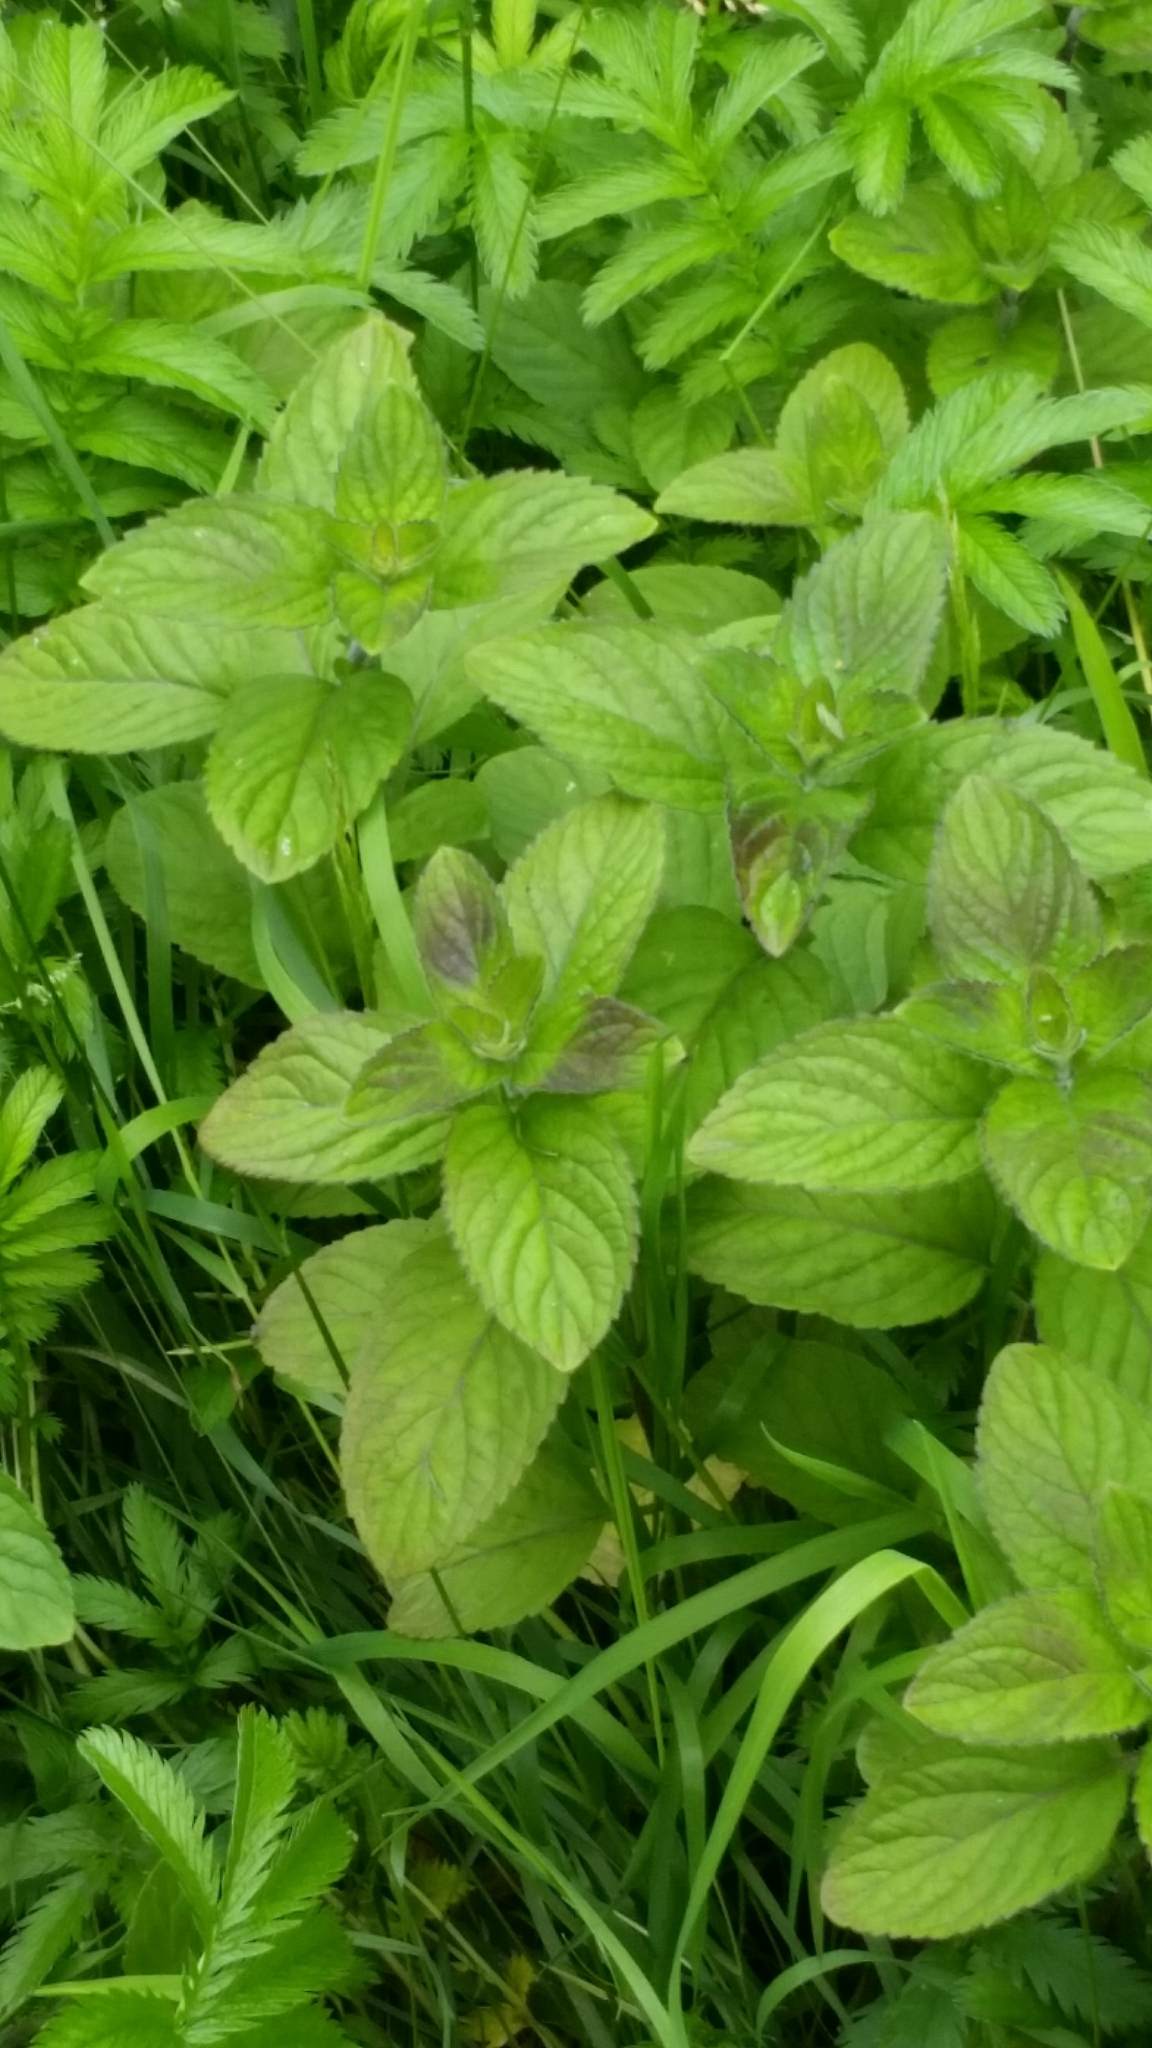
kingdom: Plantae
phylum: Tracheophyta
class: Magnoliopsida
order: Lamiales
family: Lamiaceae
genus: Mentha
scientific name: Mentha aquatica
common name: Water mint
